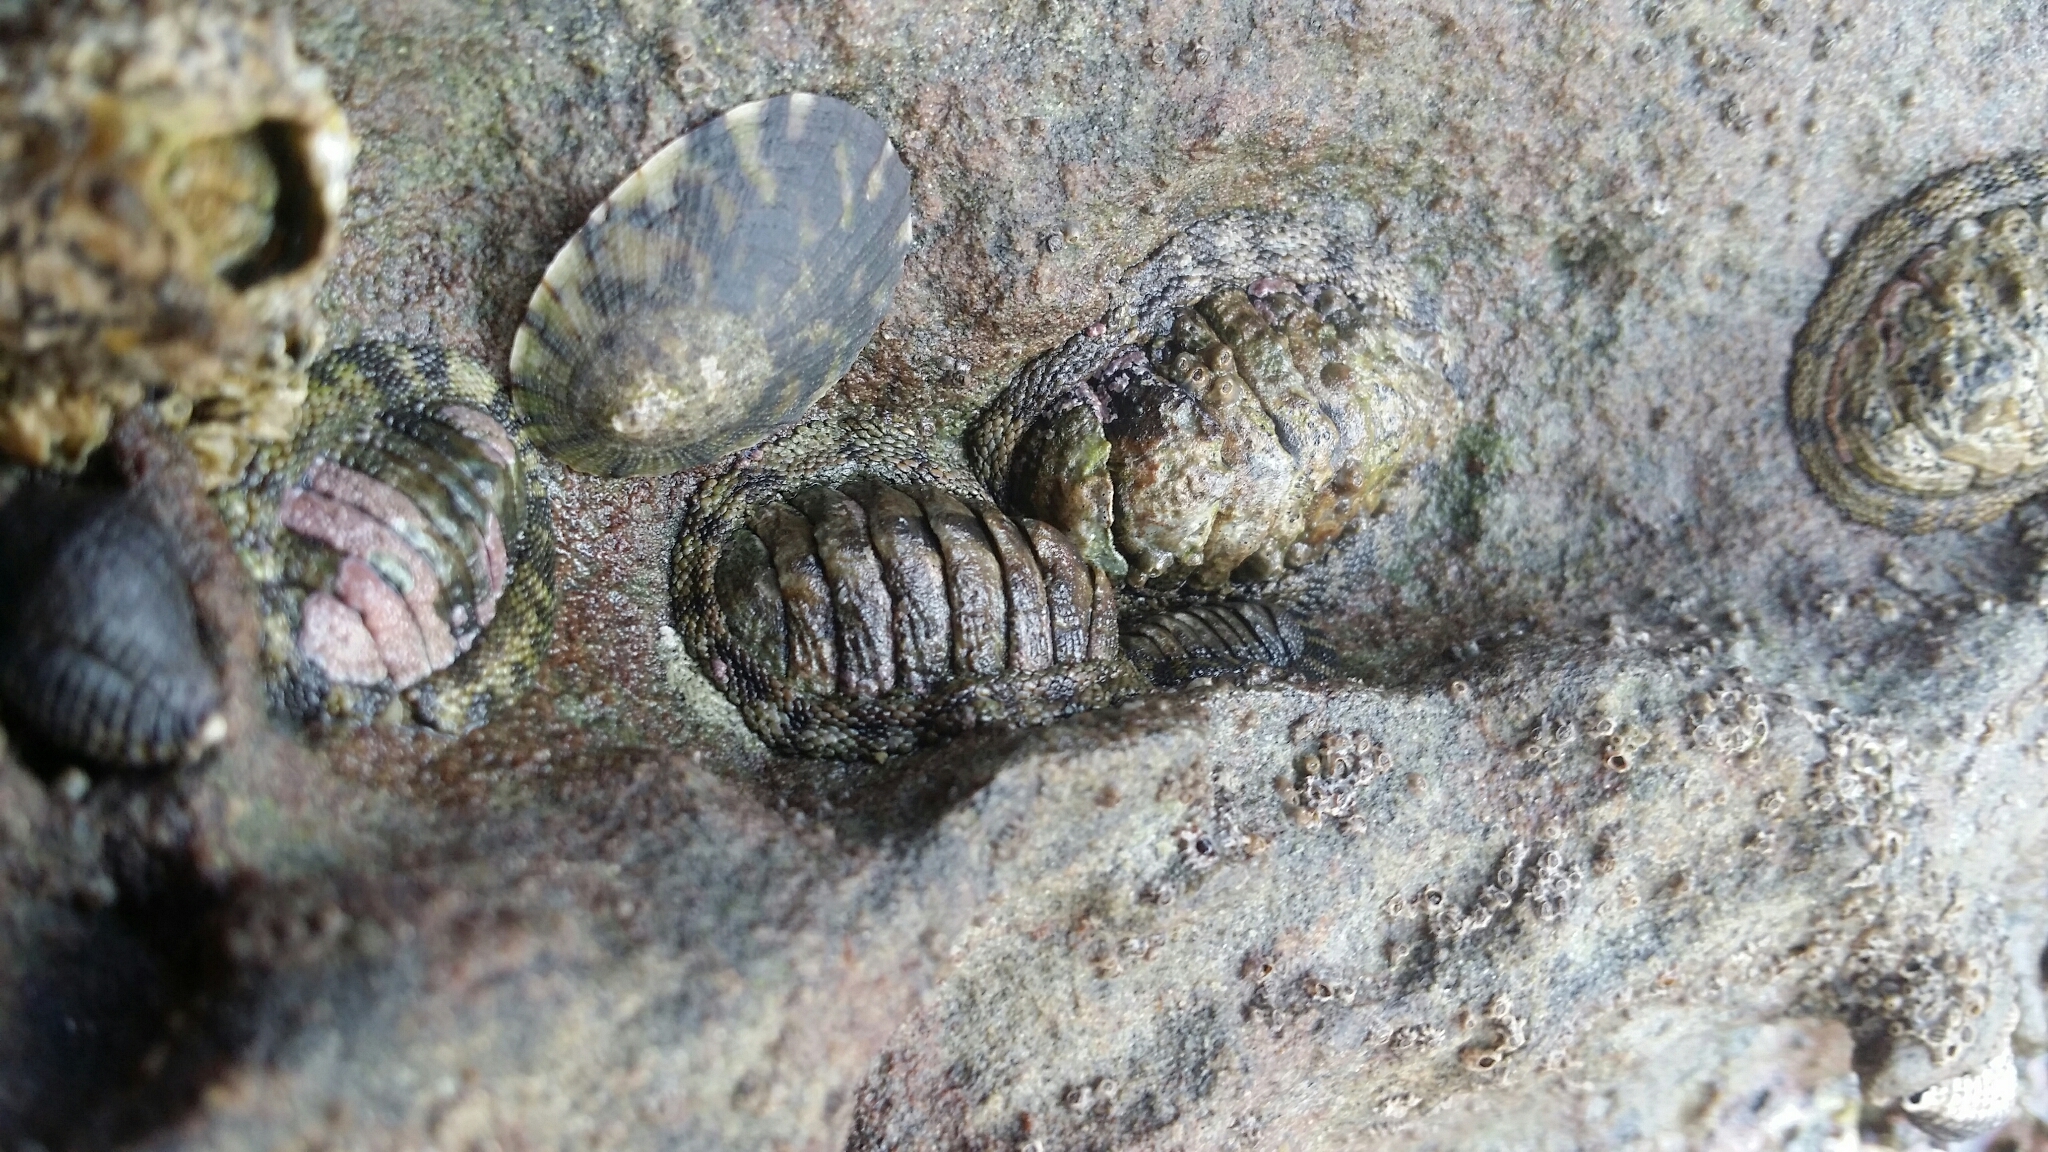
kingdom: Animalia
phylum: Mollusca
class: Polyplacophora
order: Chitonida
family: Chitonidae
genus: Sypharochiton
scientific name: Sypharochiton pelliserpentis
